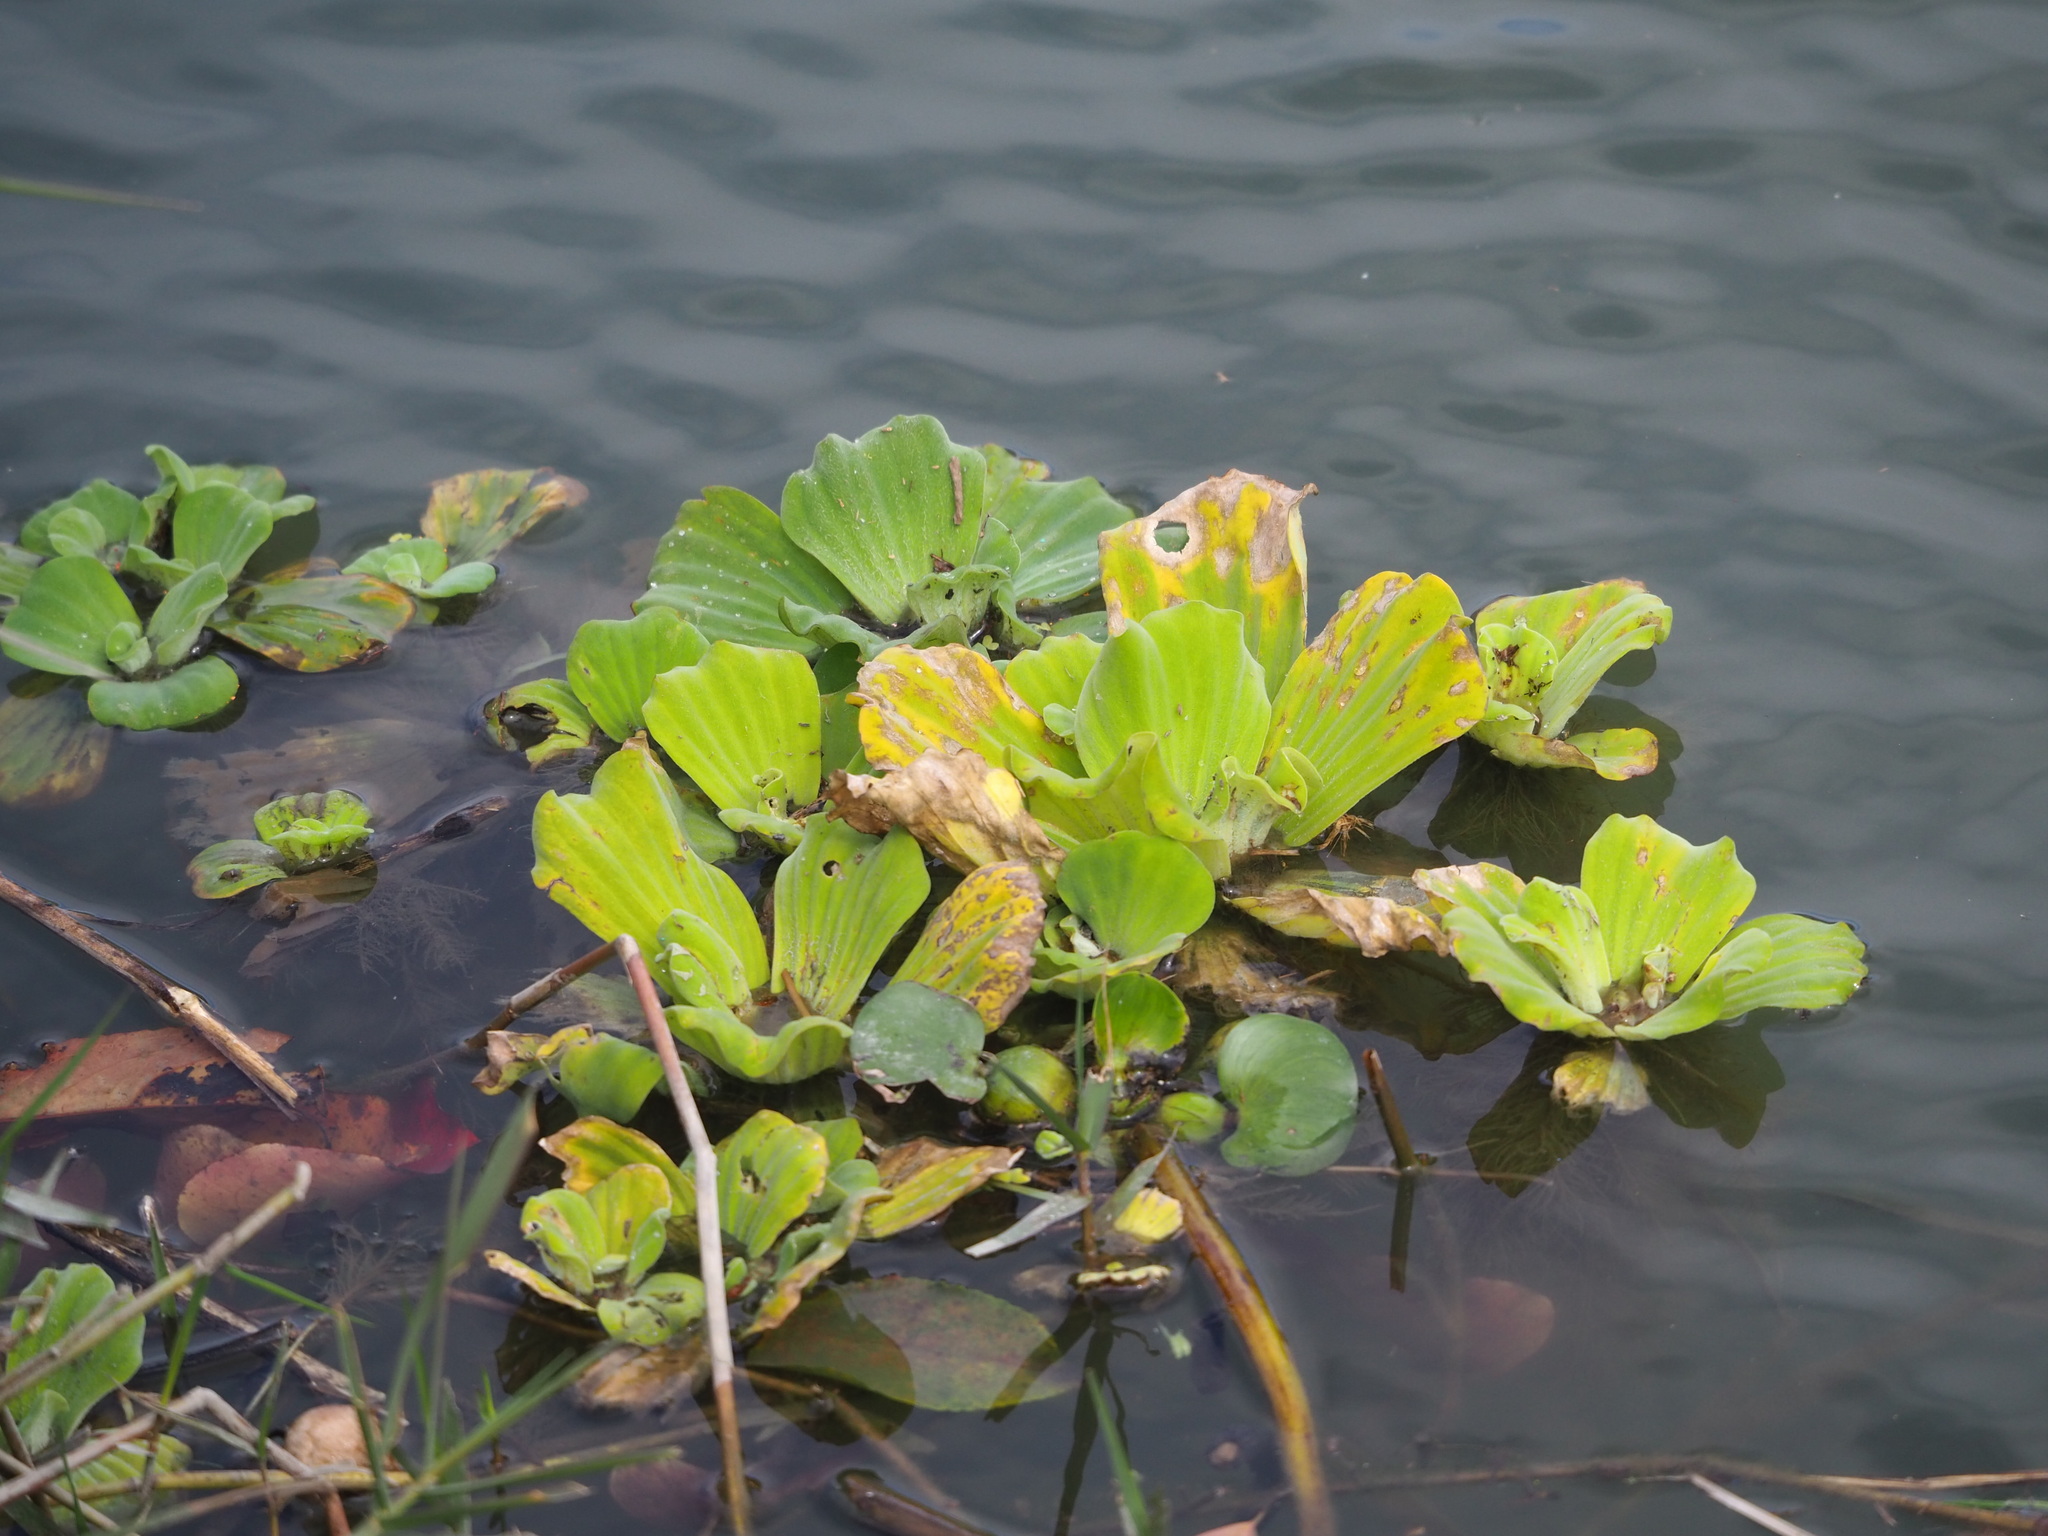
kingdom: Plantae
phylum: Tracheophyta
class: Liliopsida
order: Alismatales
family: Araceae
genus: Pistia
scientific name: Pistia stratiotes
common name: Water lettuce
